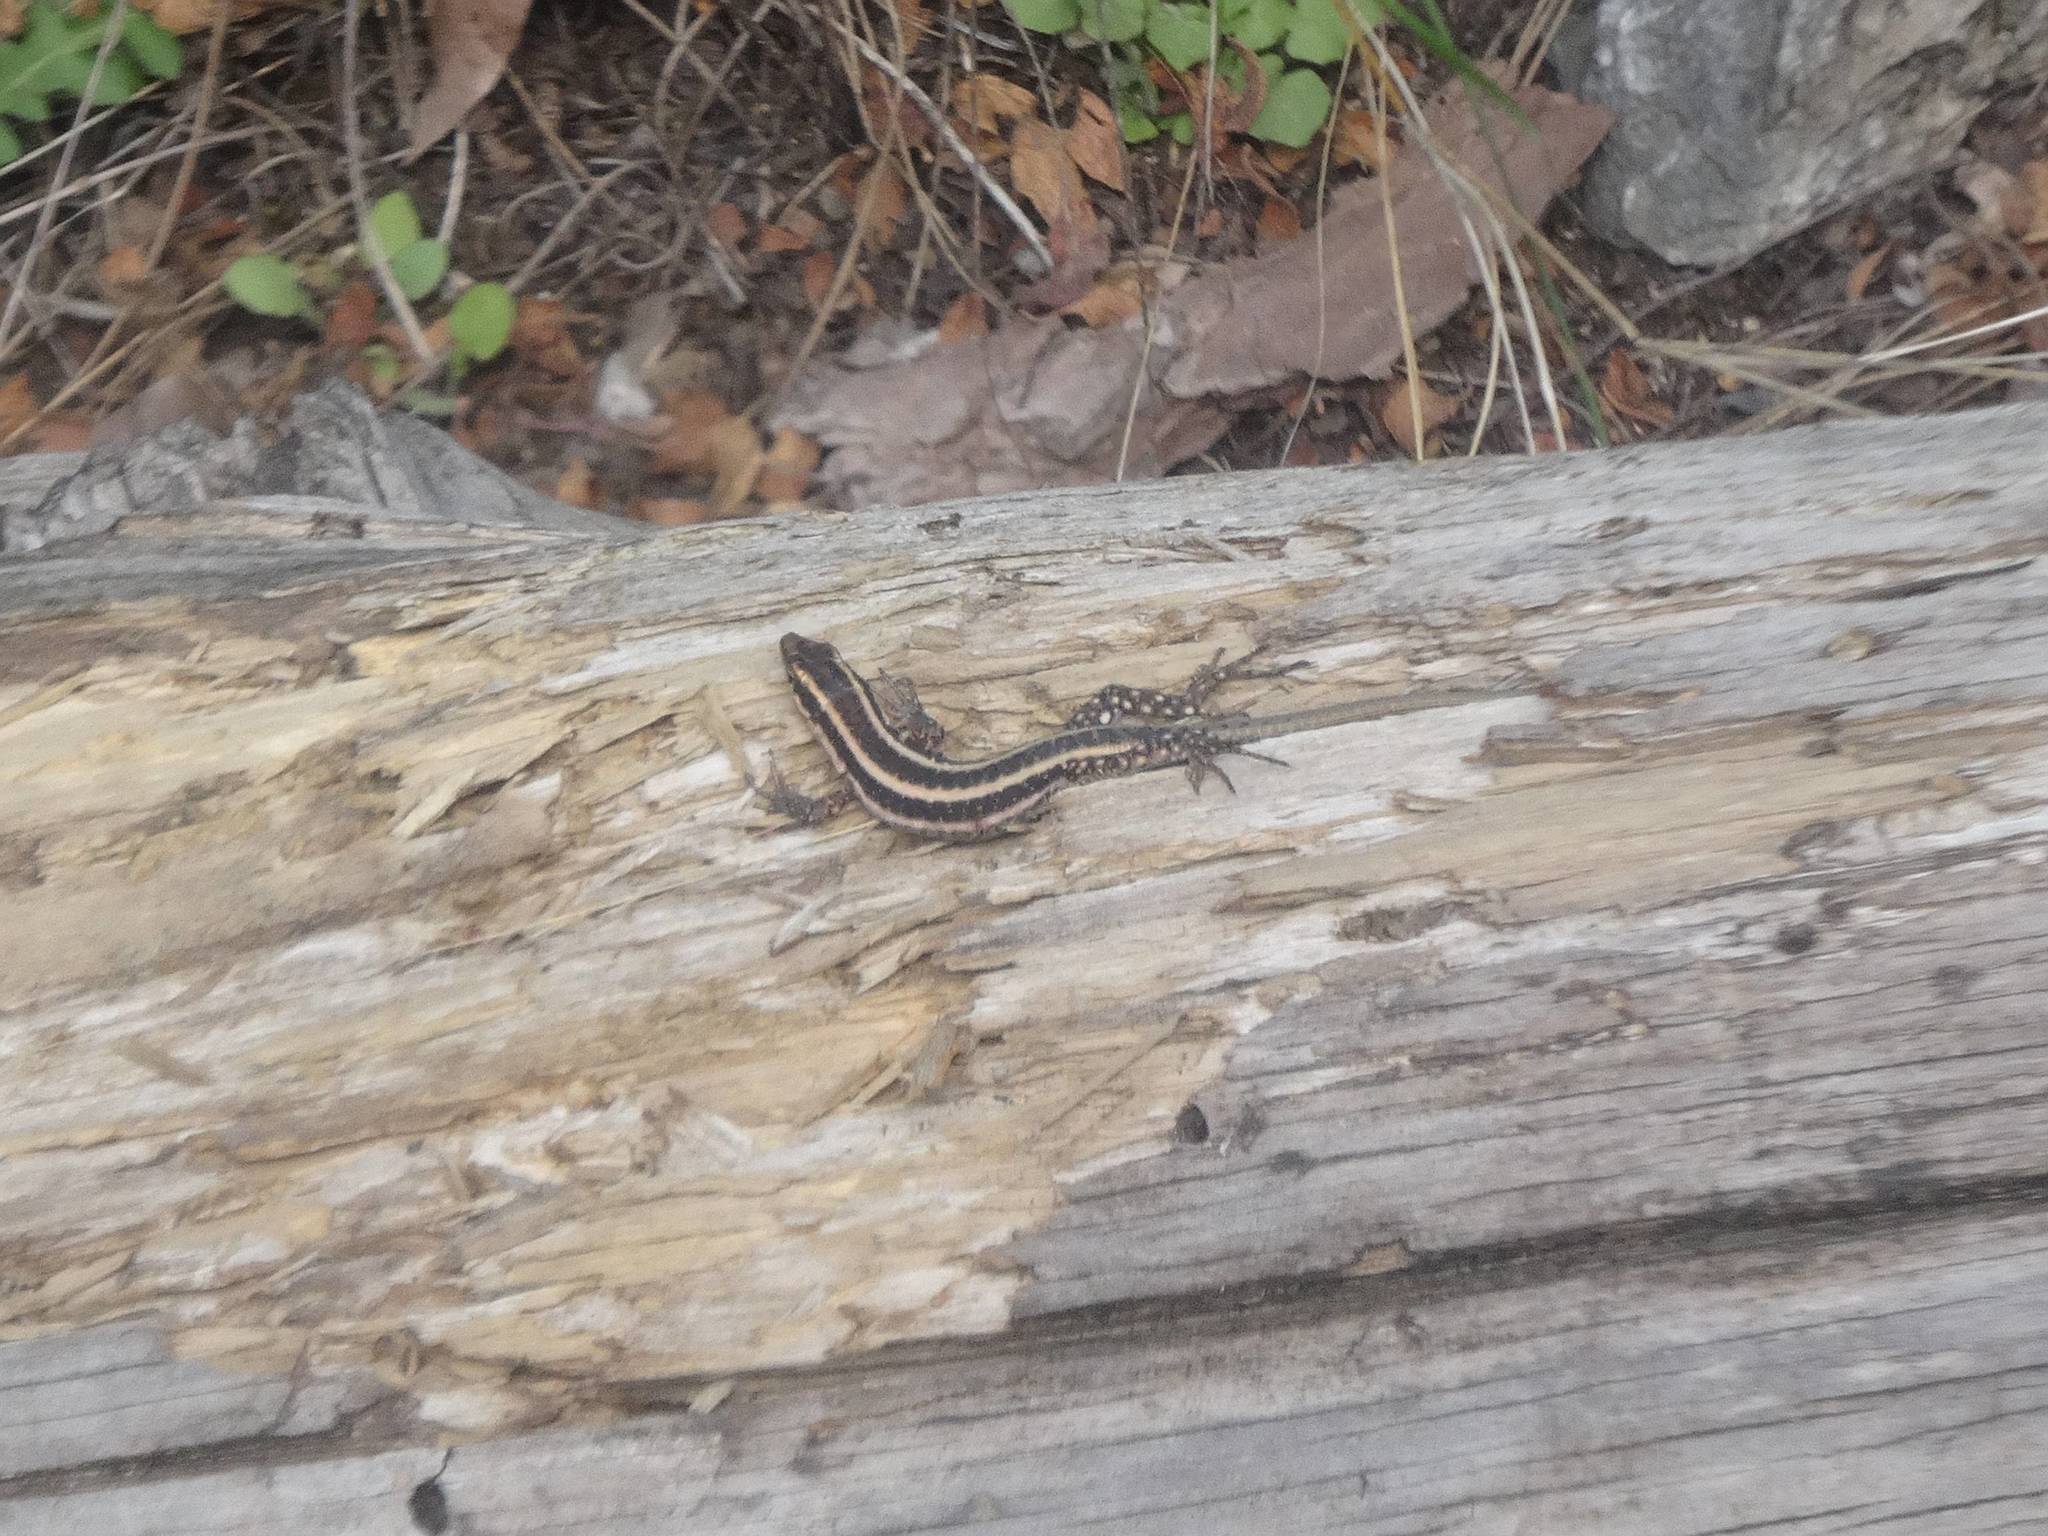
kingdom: Animalia
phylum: Chordata
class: Squamata
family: Lacertidae
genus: Anatololacerta
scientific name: Anatololacerta finikensis
